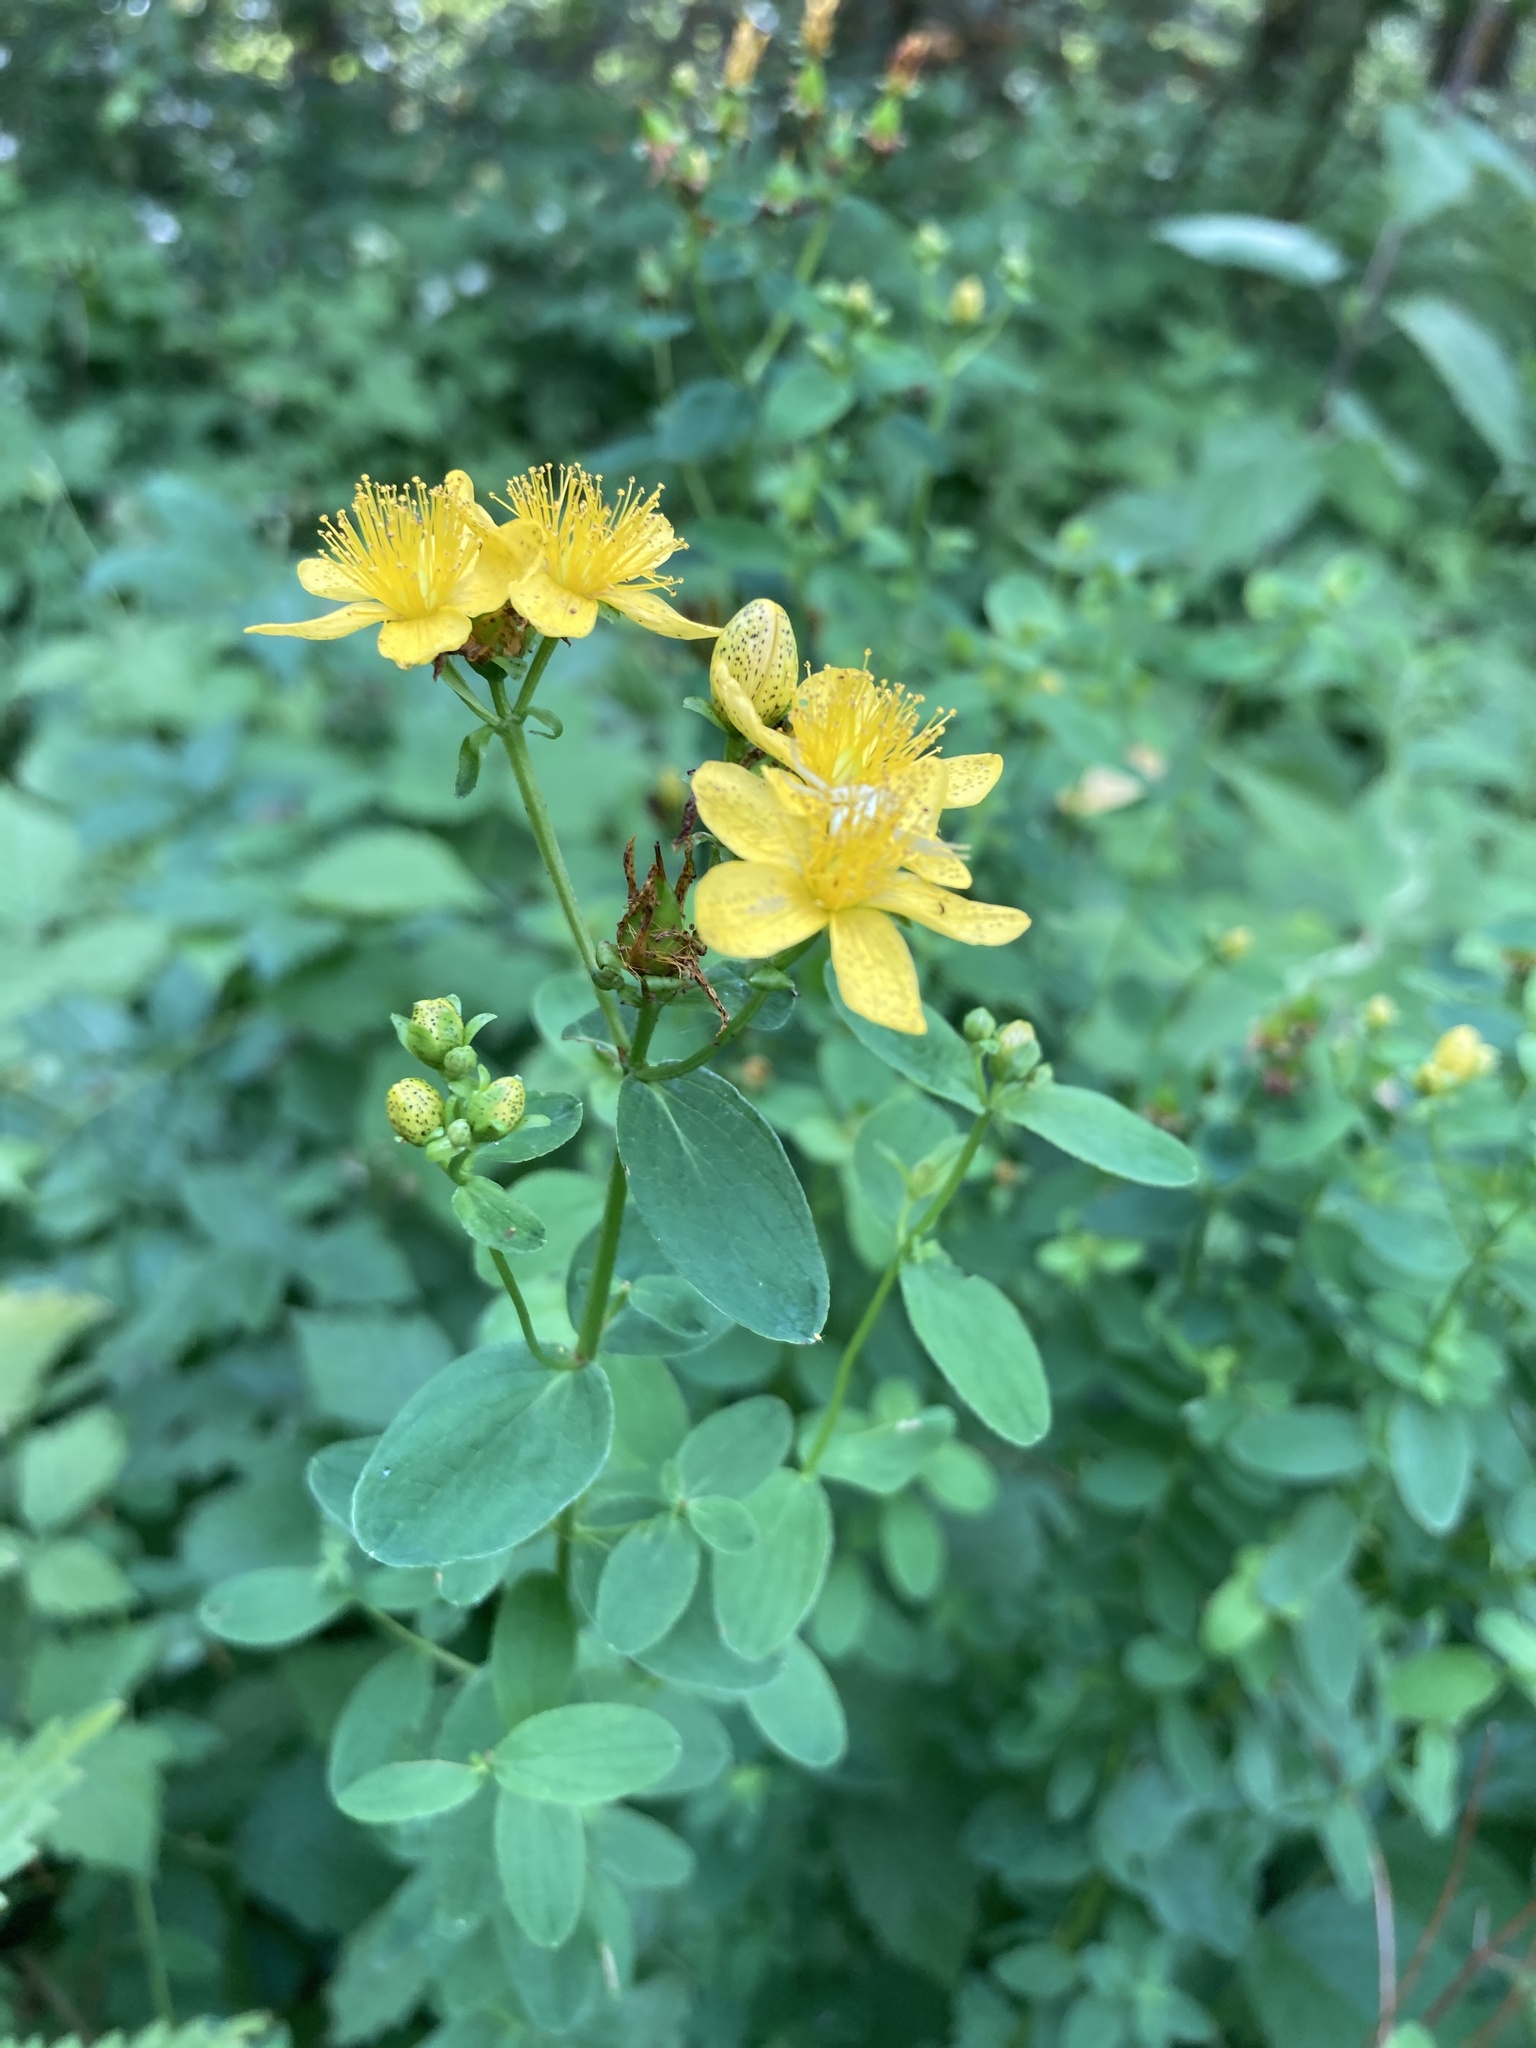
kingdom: Plantae
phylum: Tracheophyta
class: Magnoliopsida
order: Malpighiales
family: Hypericaceae
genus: Hypericum
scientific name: Hypericum maculatum
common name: Imperforate st. john's-wort
